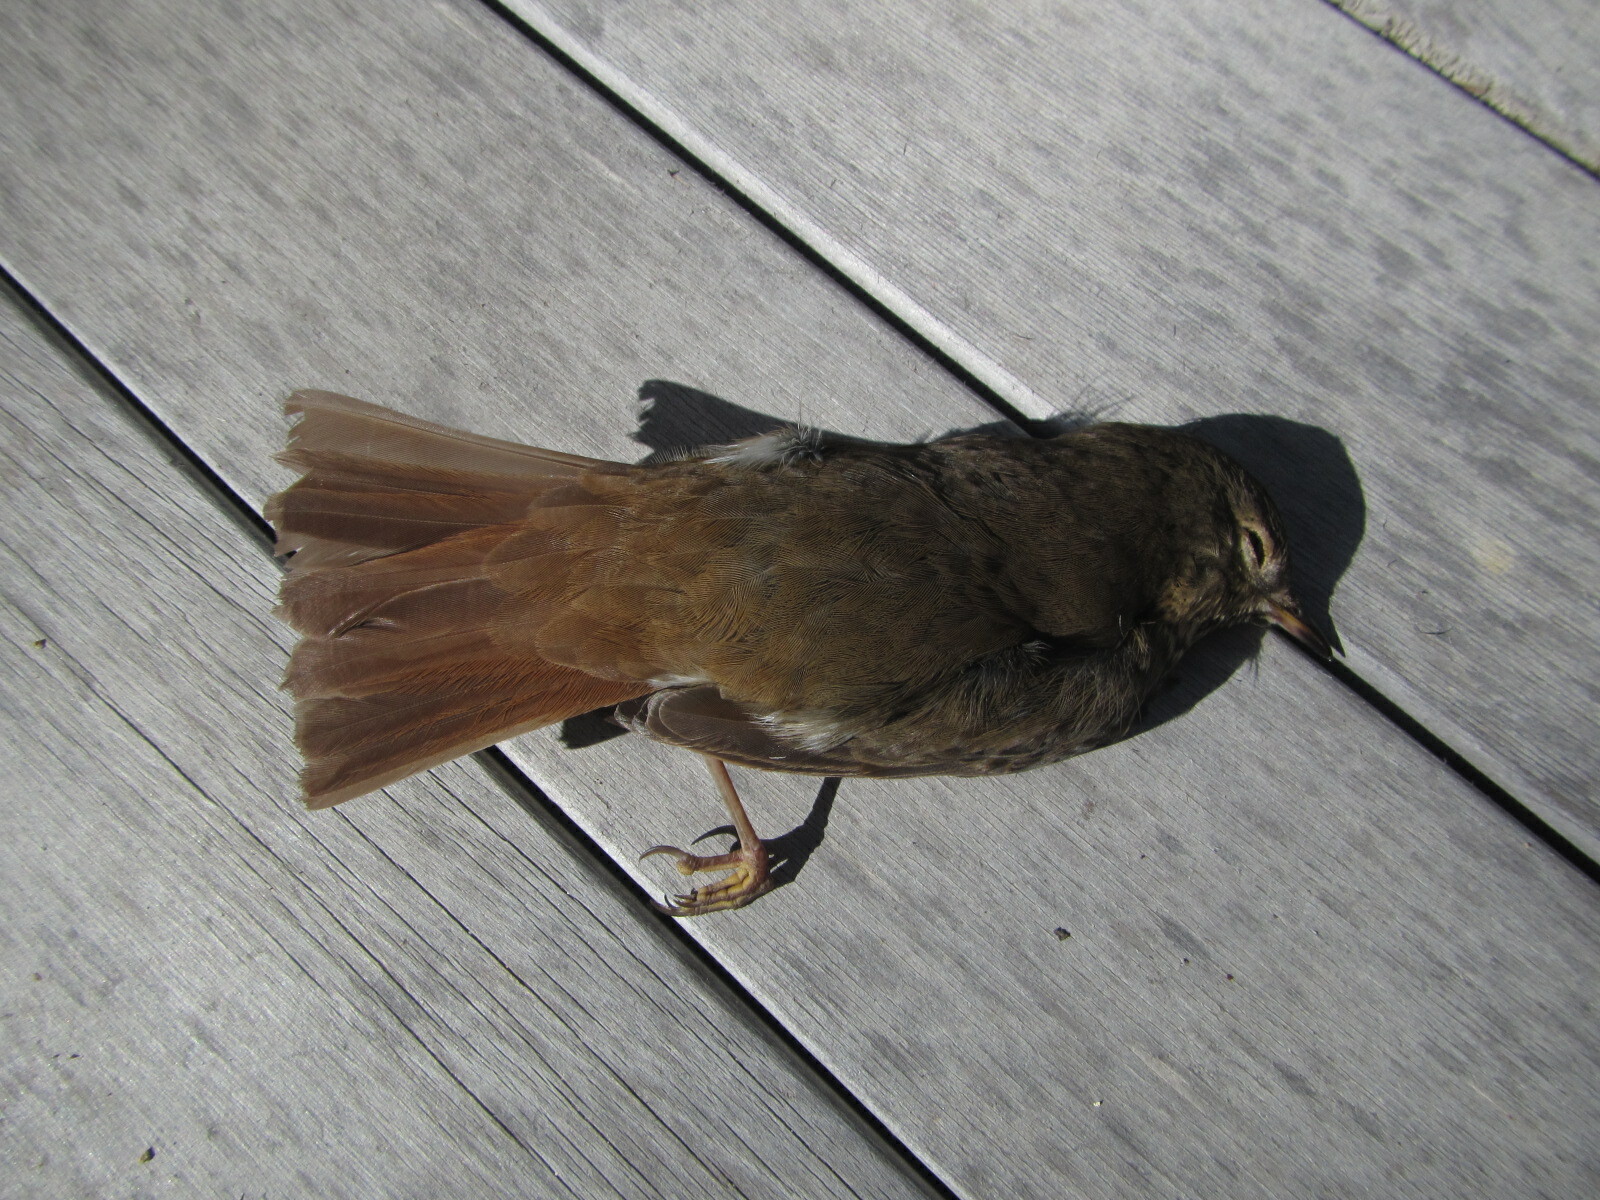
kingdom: Animalia
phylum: Chordata
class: Aves
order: Passeriformes
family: Turdidae
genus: Catharus
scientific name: Catharus guttatus
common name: Hermit thrush
